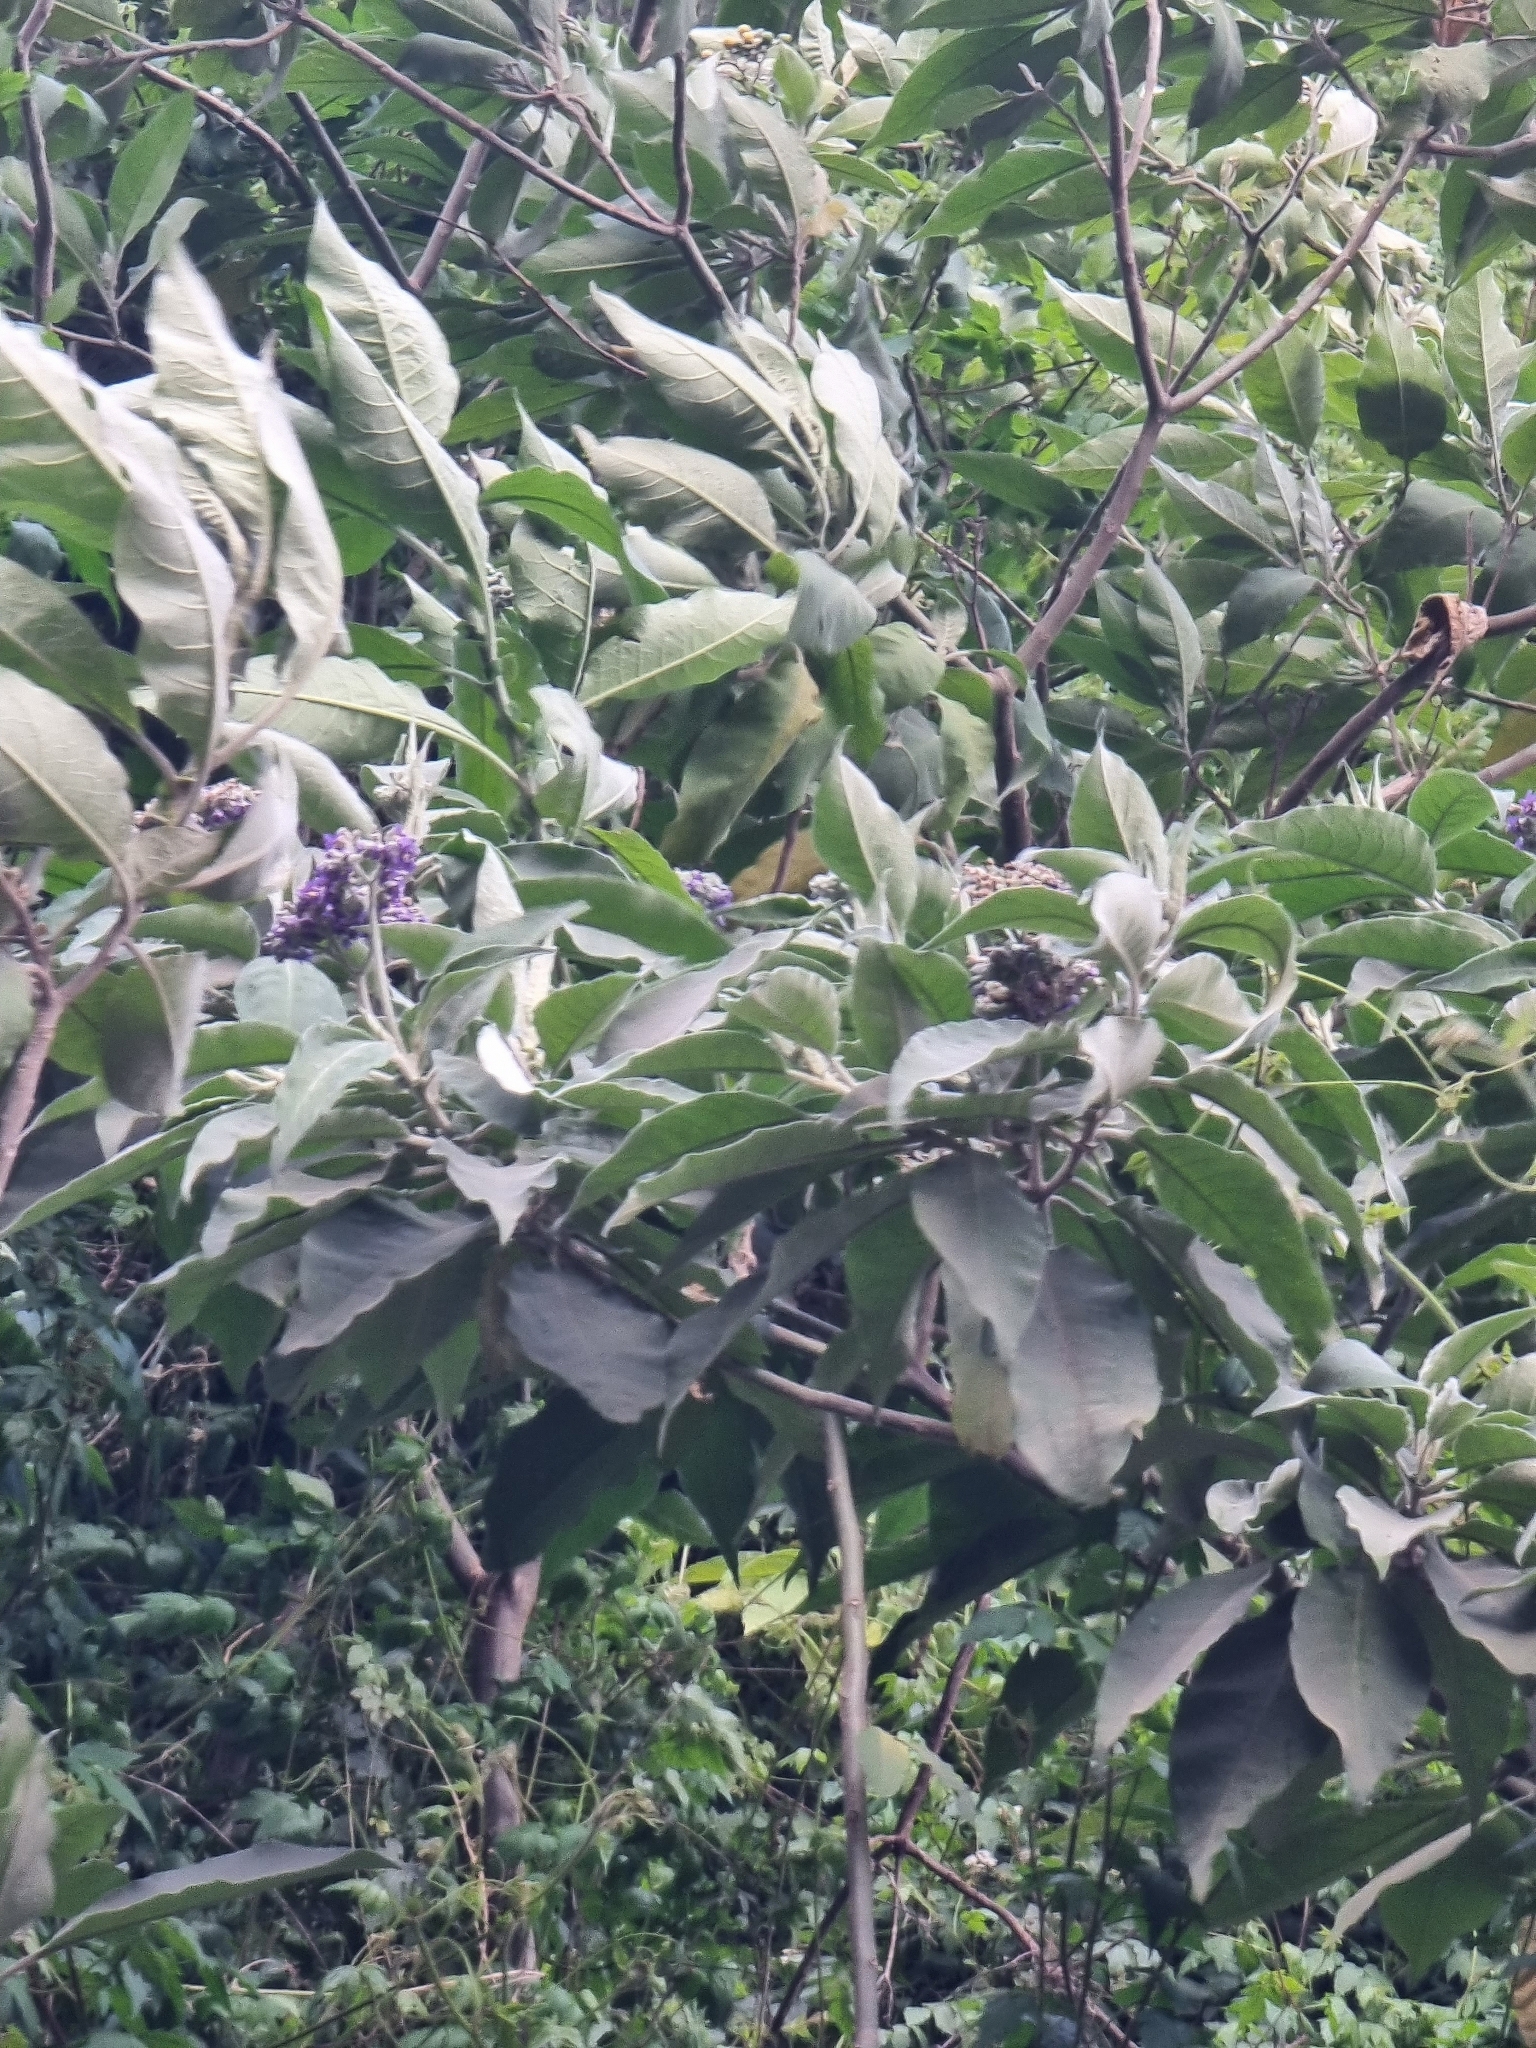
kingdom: Plantae
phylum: Tracheophyta
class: Magnoliopsida
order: Solanales
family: Solanaceae
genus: Solanum
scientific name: Solanum mauritianum
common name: Earleaf nightshade
